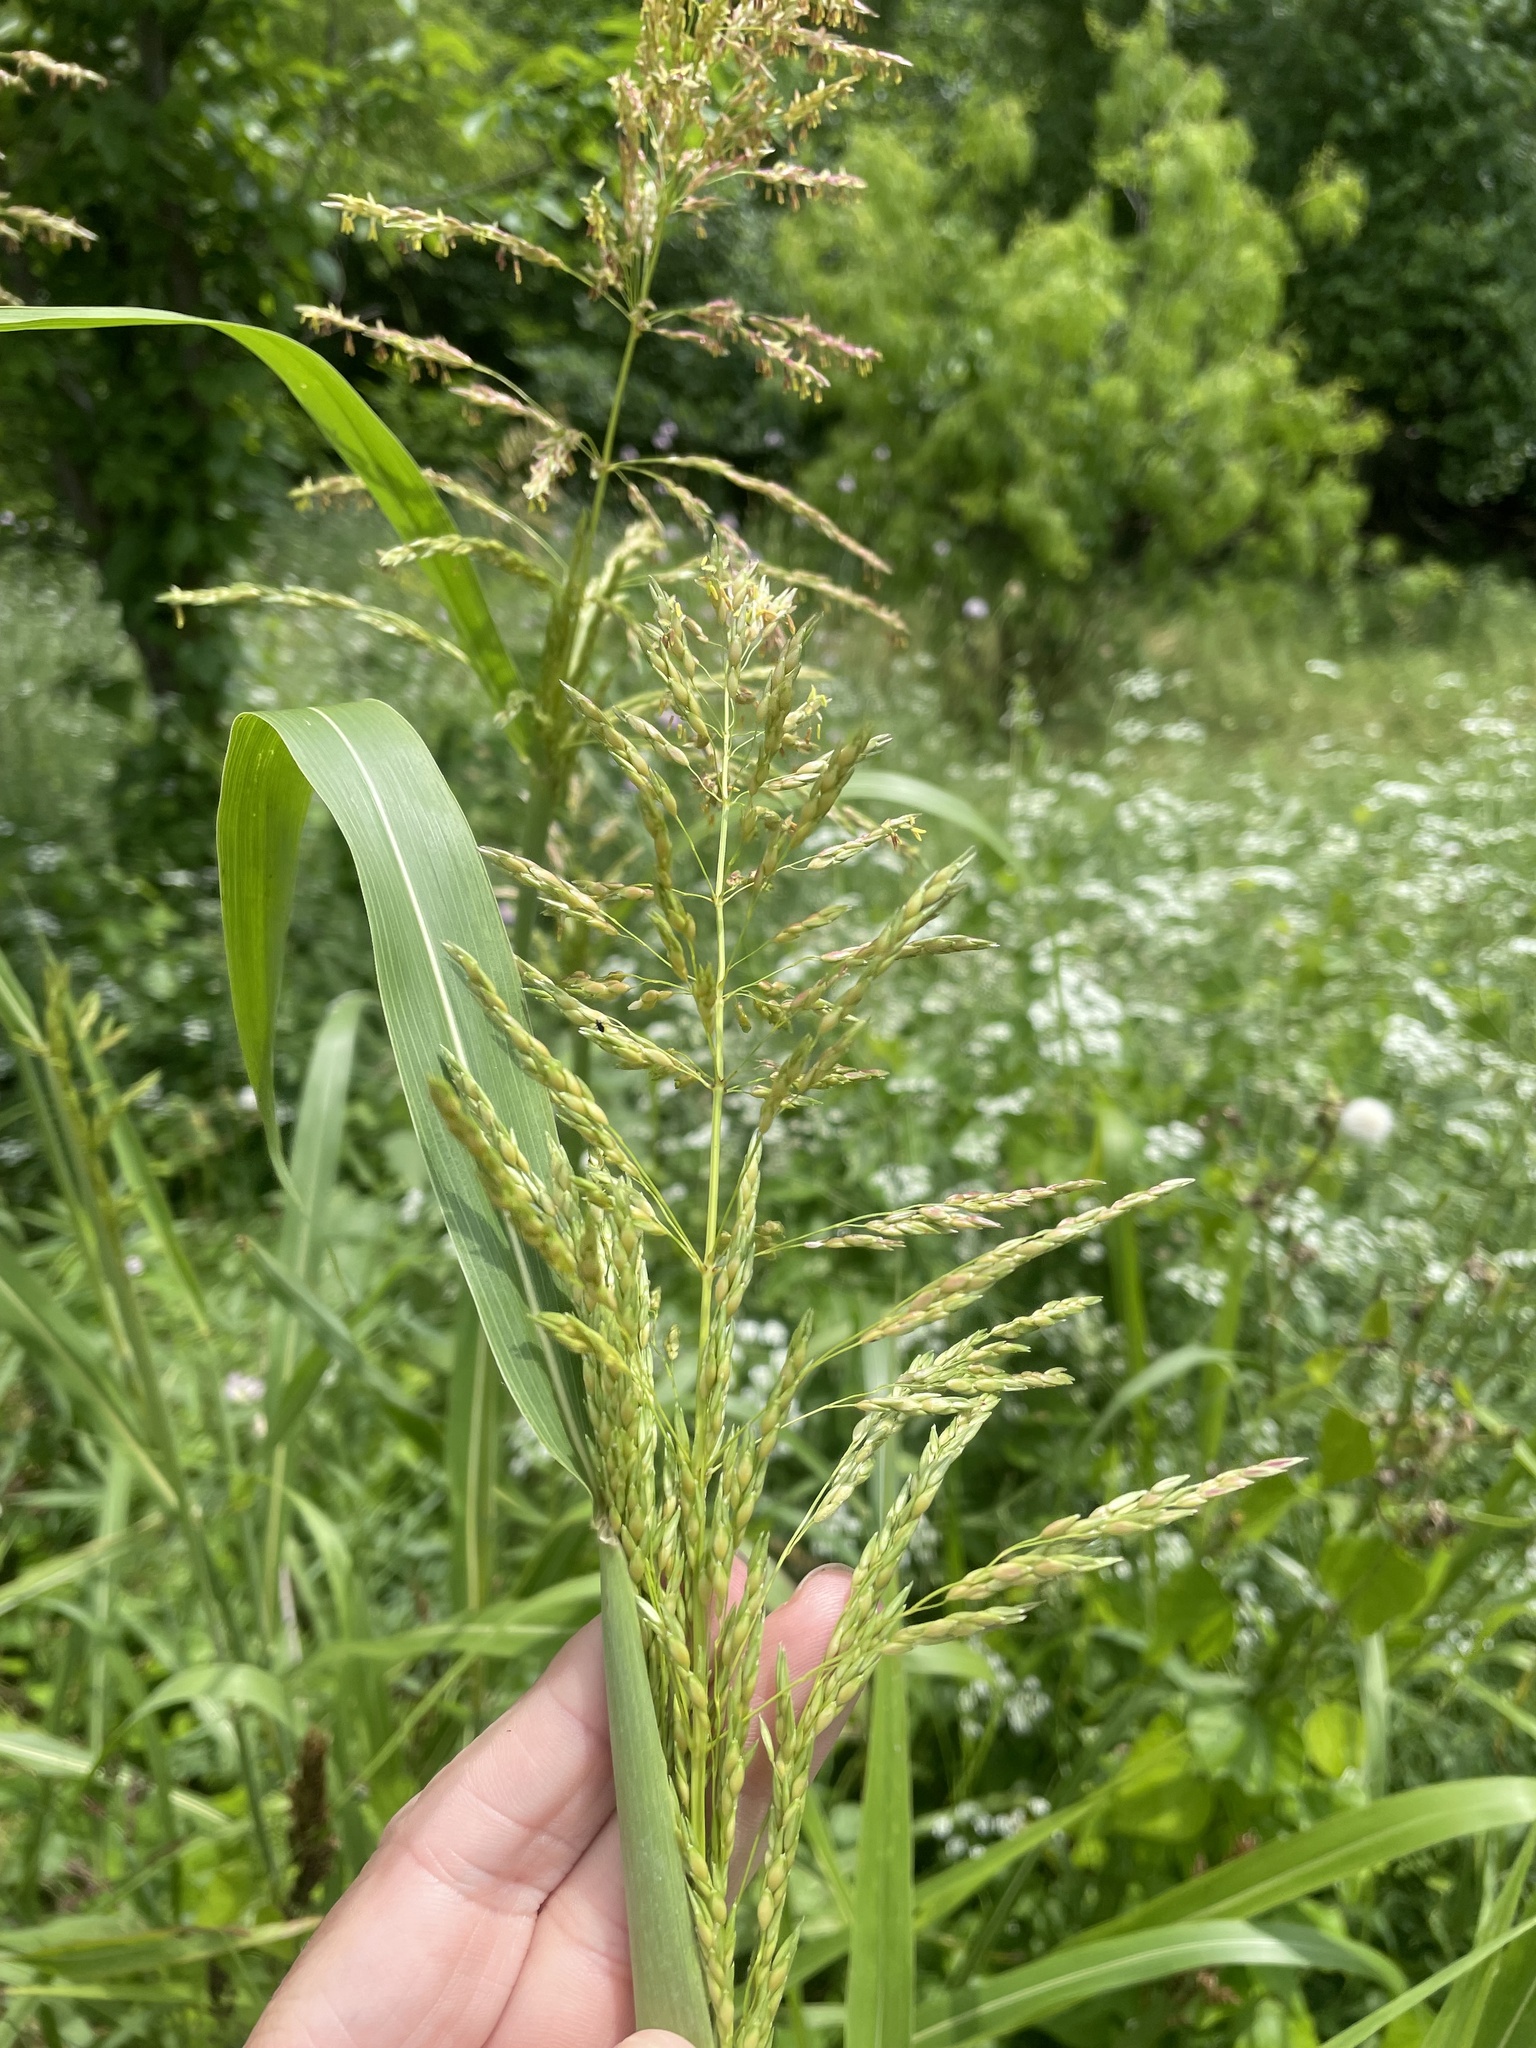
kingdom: Plantae
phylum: Tracheophyta
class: Liliopsida
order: Poales
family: Poaceae
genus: Sorghum
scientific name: Sorghum halepense
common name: Johnson-grass
